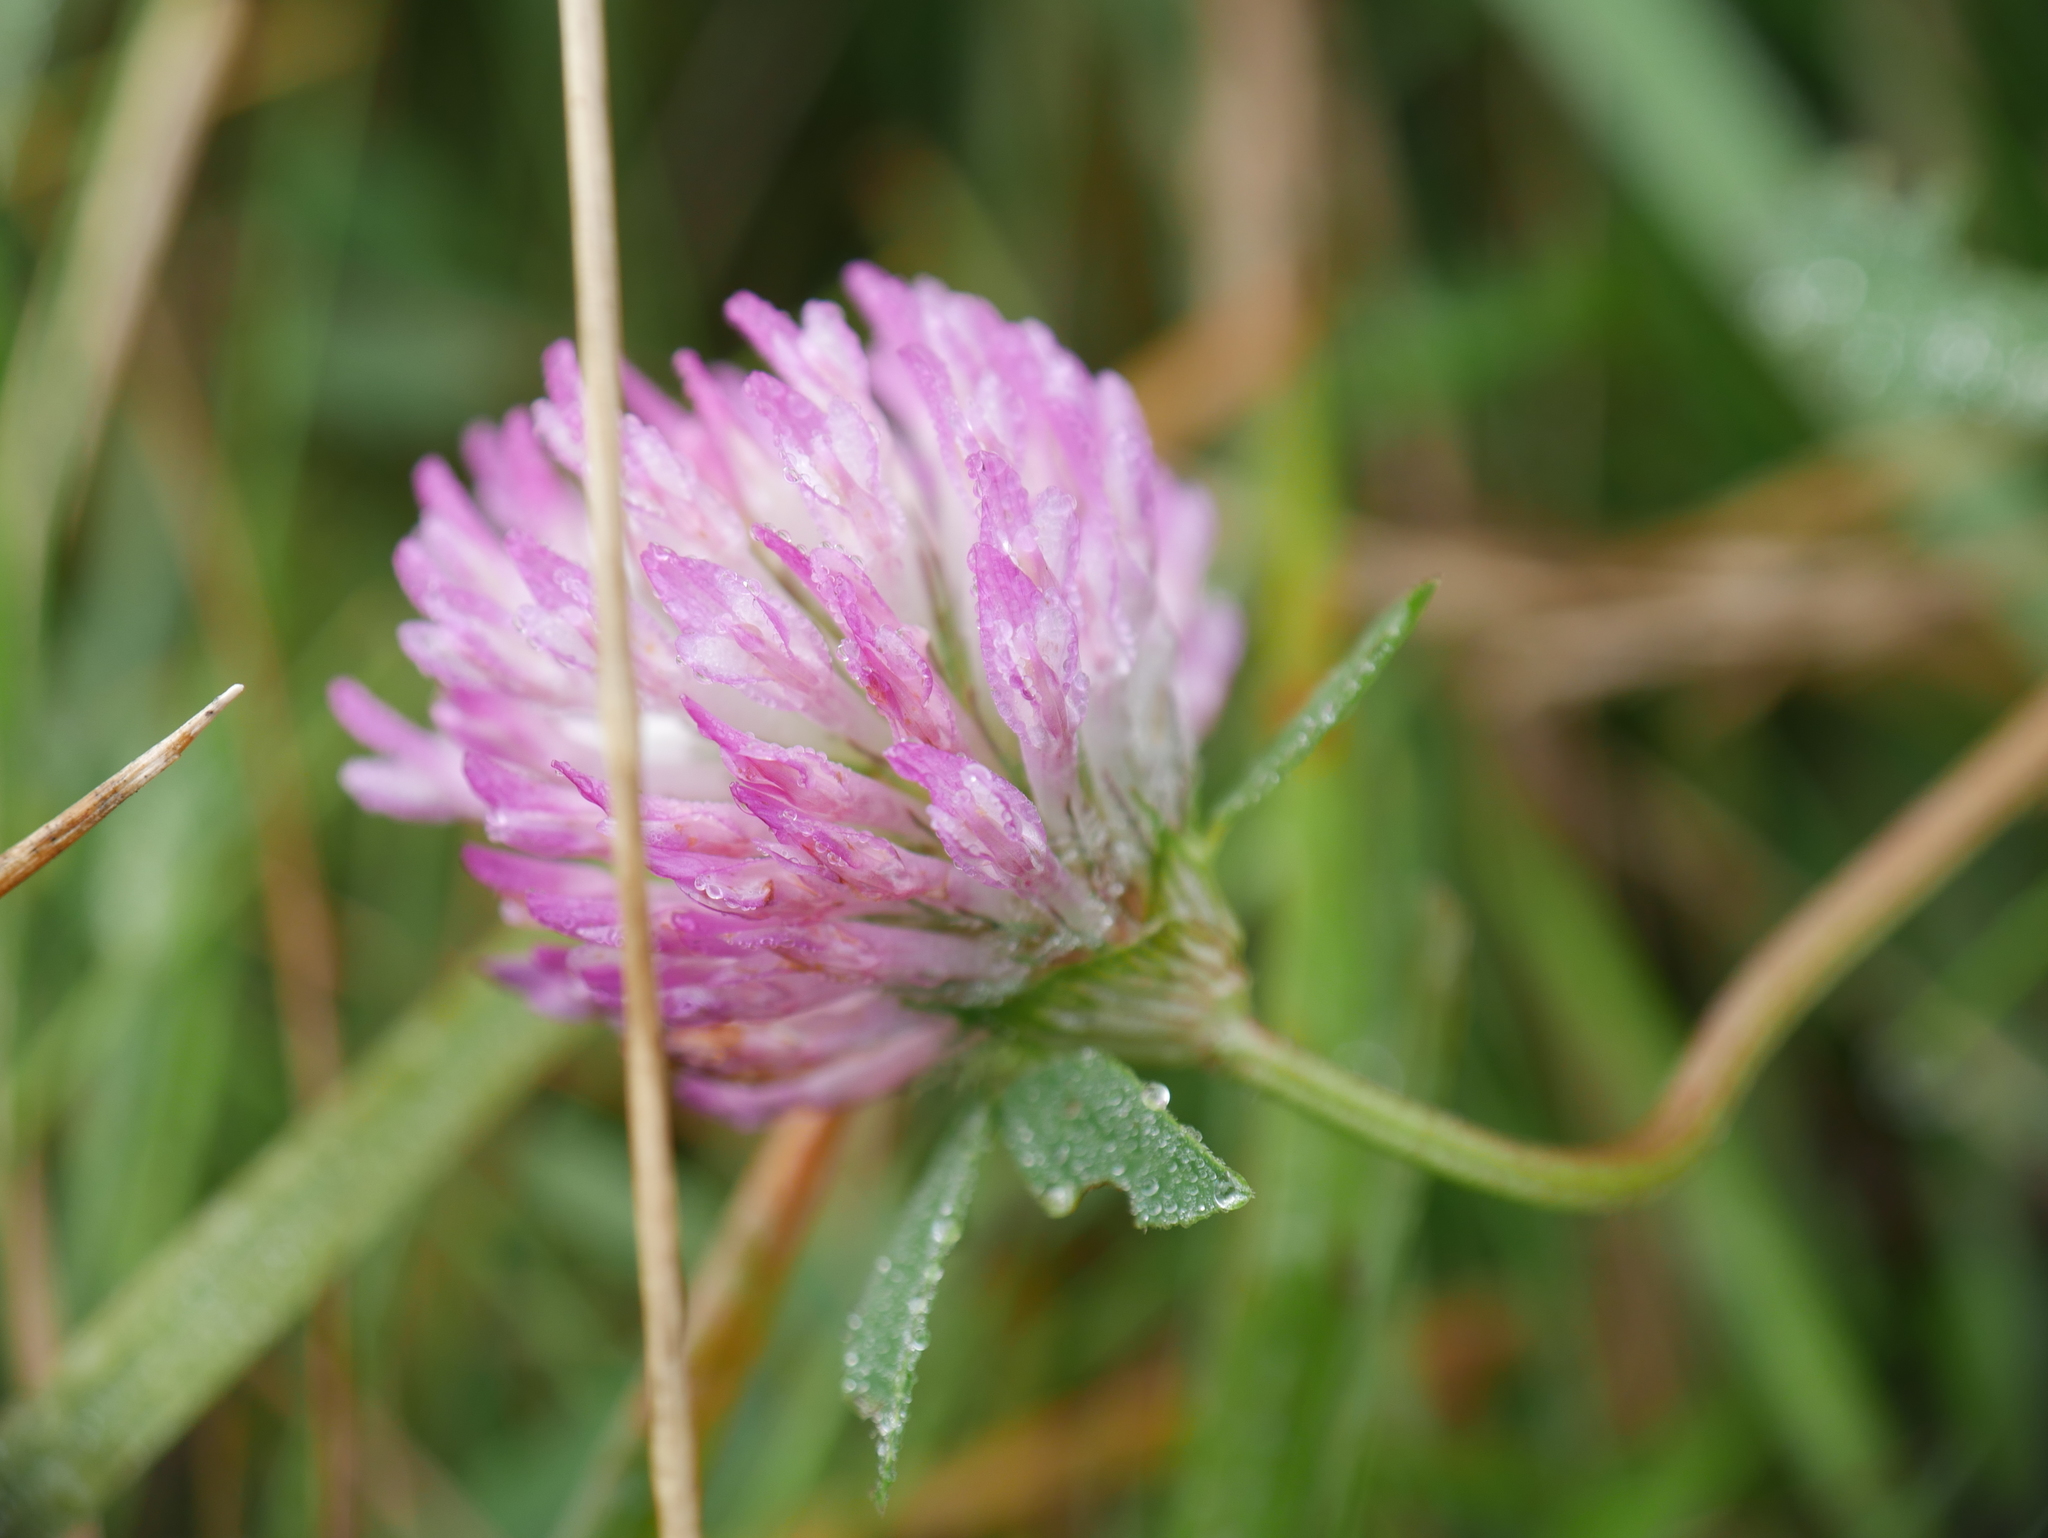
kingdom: Plantae
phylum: Tracheophyta
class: Magnoliopsida
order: Fabales
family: Fabaceae
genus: Trifolium
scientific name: Trifolium pratense
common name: Red clover
